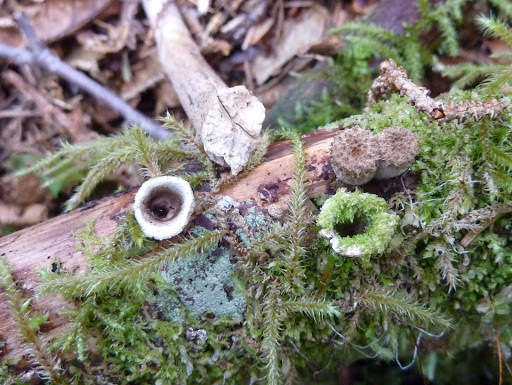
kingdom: Fungi
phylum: Basidiomycota
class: Agaricomycetes
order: Agaricales
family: Agaricaceae
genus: Nidula
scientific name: Nidula candida
